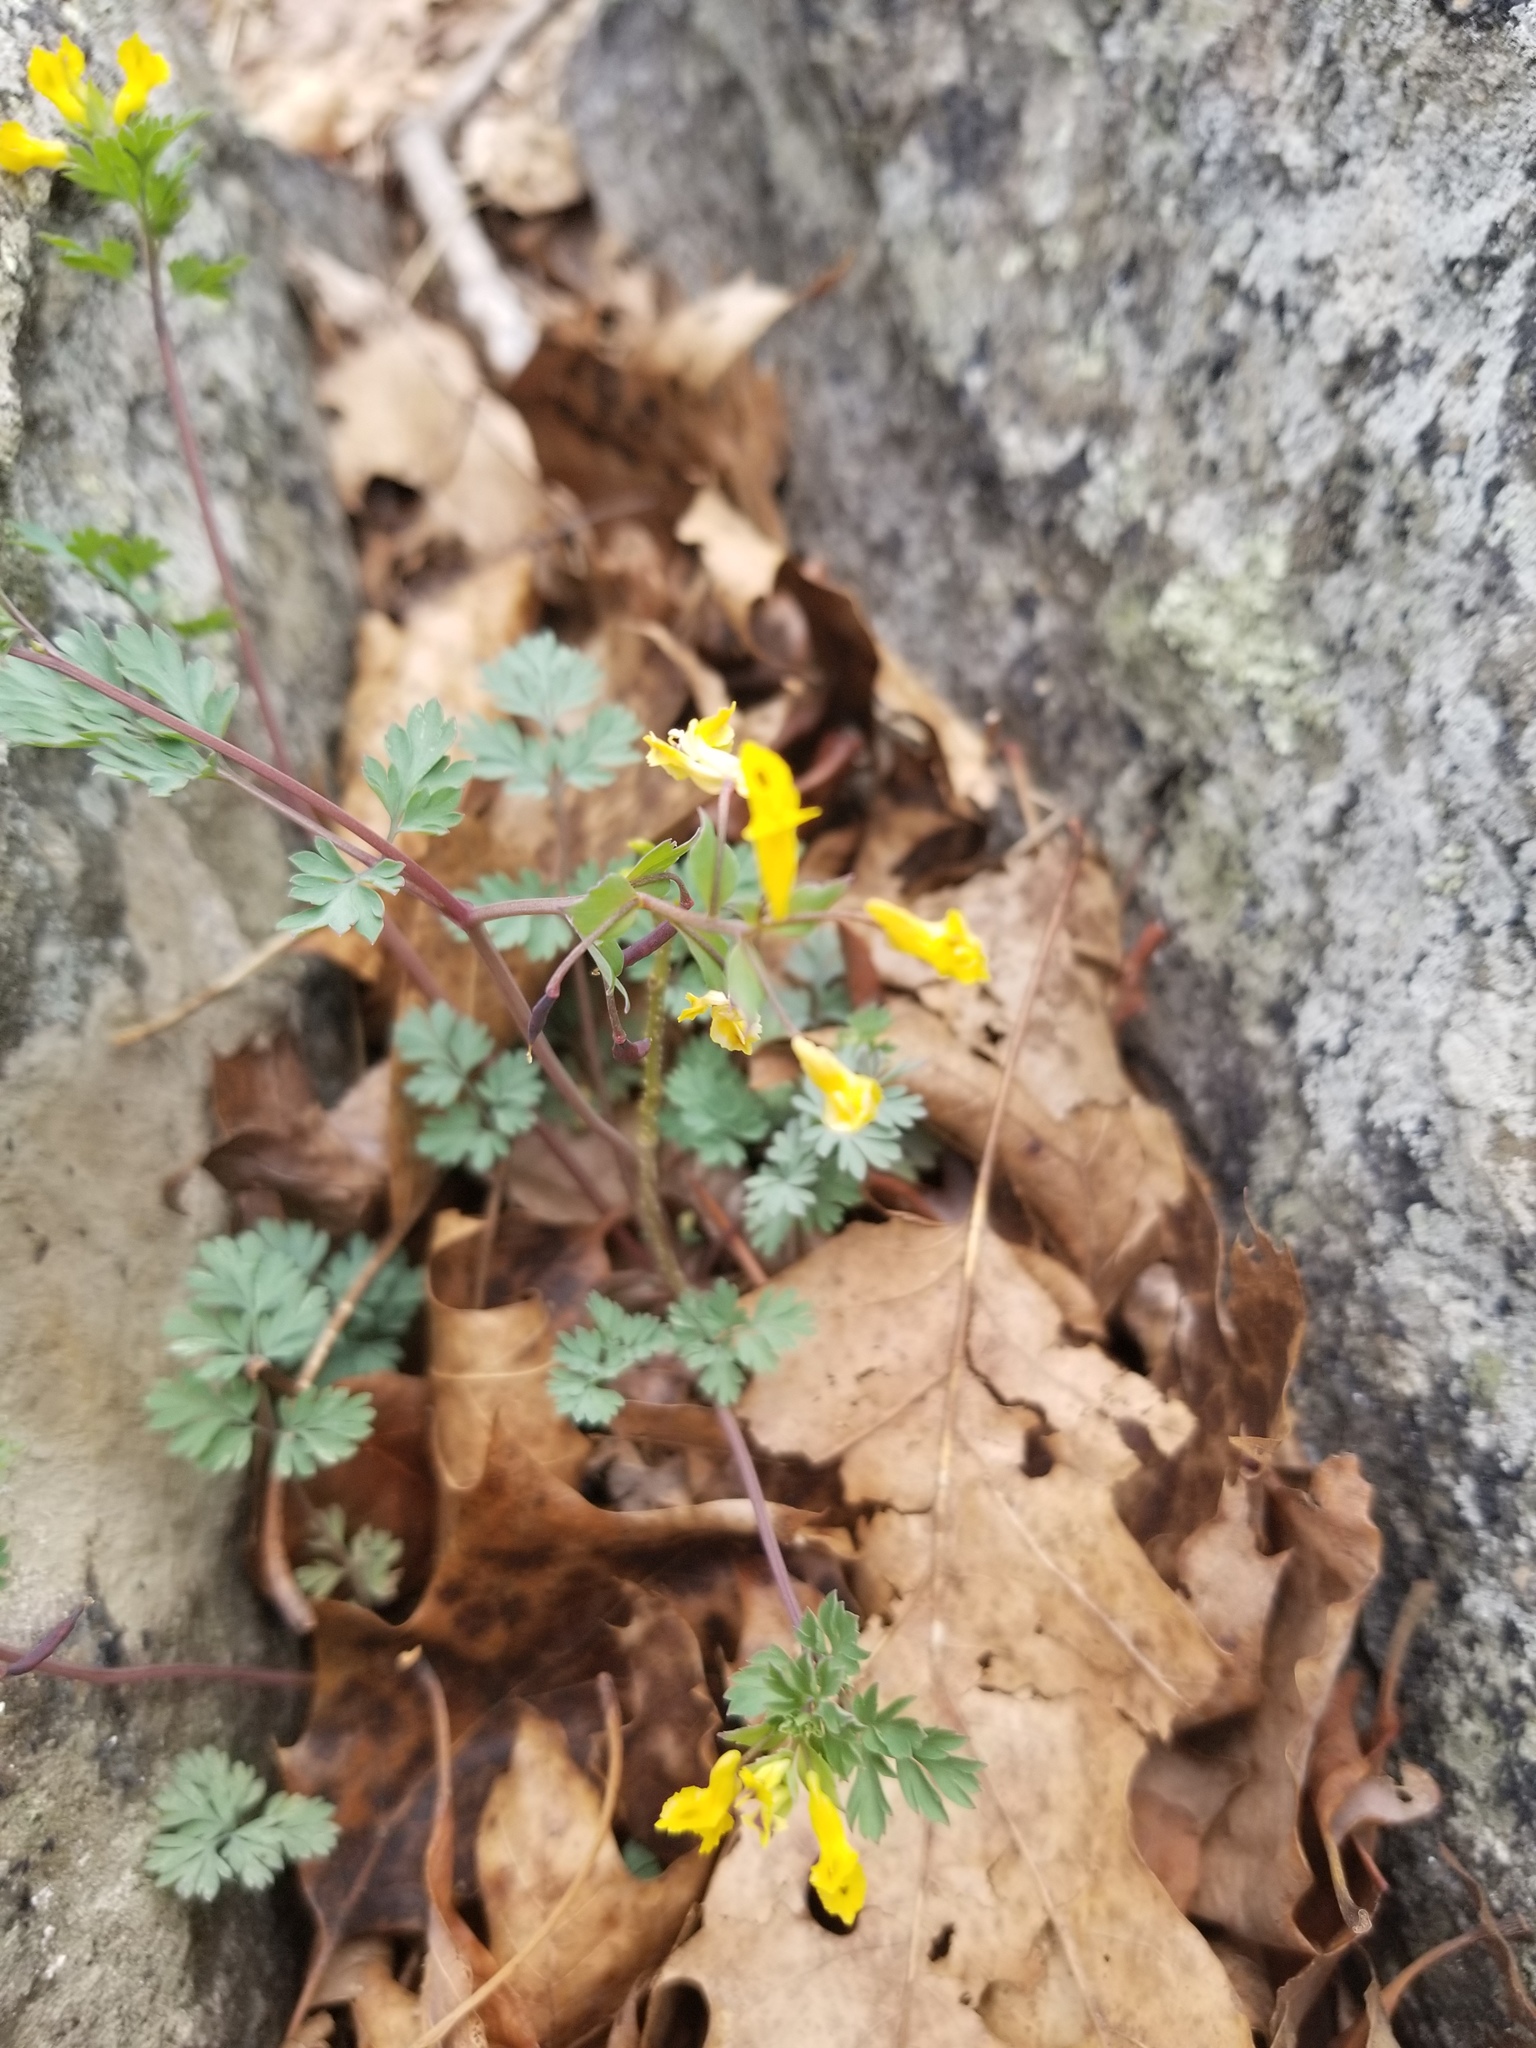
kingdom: Plantae
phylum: Tracheophyta
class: Magnoliopsida
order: Ranunculales
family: Papaveraceae
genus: Corydalis
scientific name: Corydalis flavula
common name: Yellow corydalis
